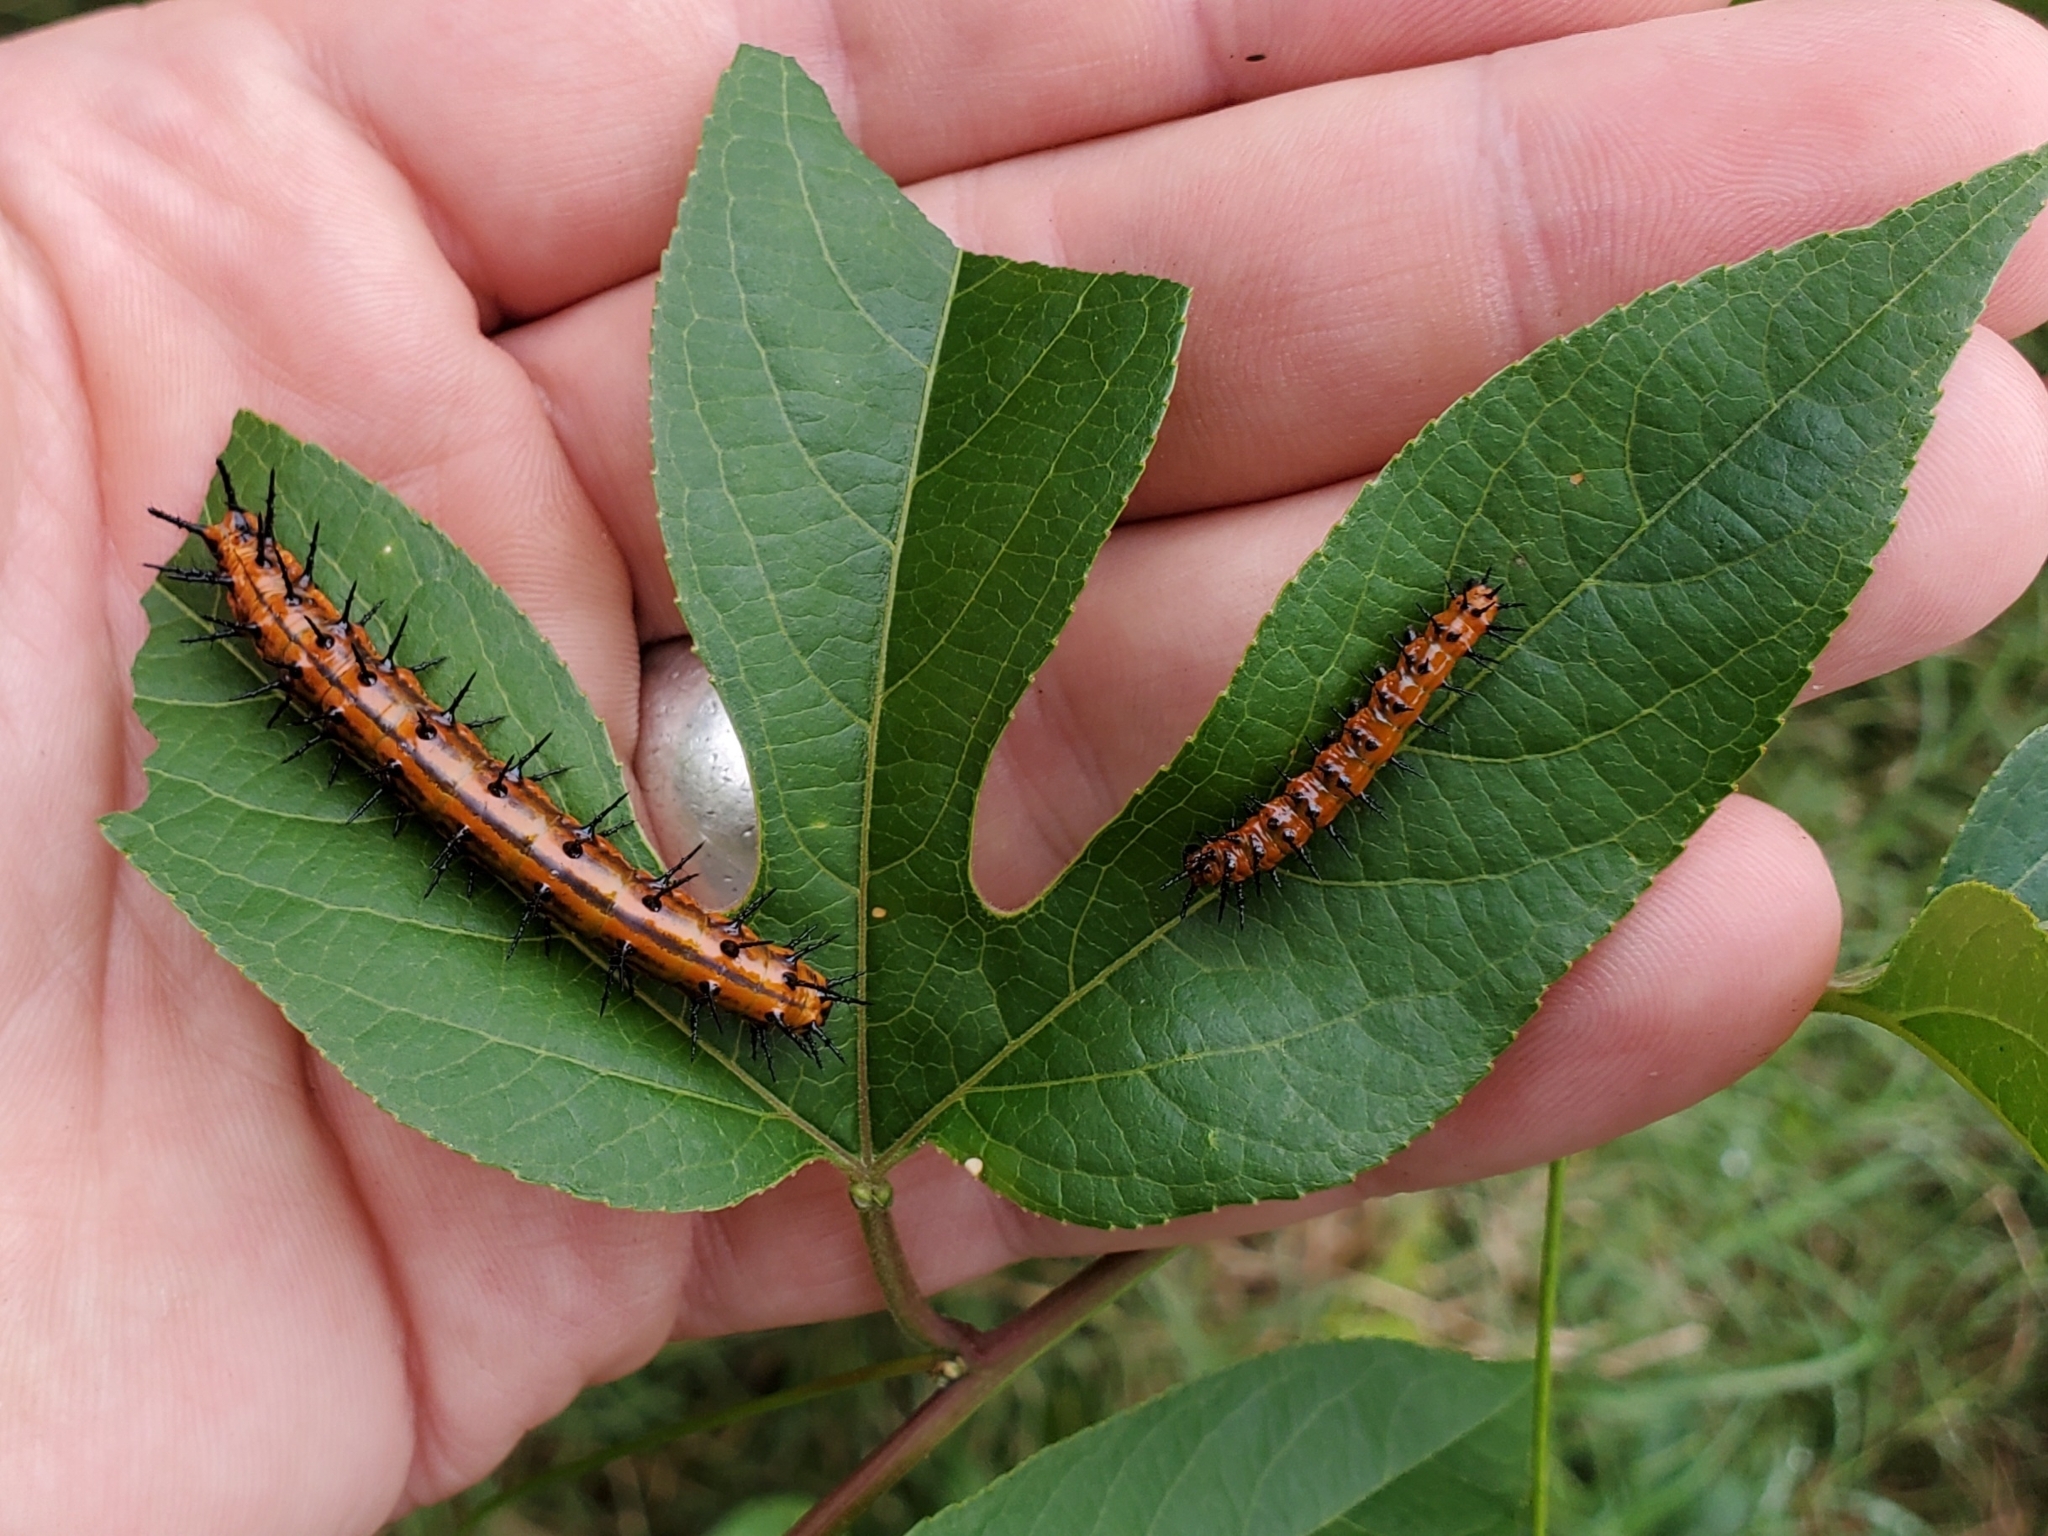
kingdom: Animalia
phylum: Arthropoda
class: Insecta
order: Lepidoptera
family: Nymphalidae
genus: Dione
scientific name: Dione vanillae
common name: Gulf fritillary
